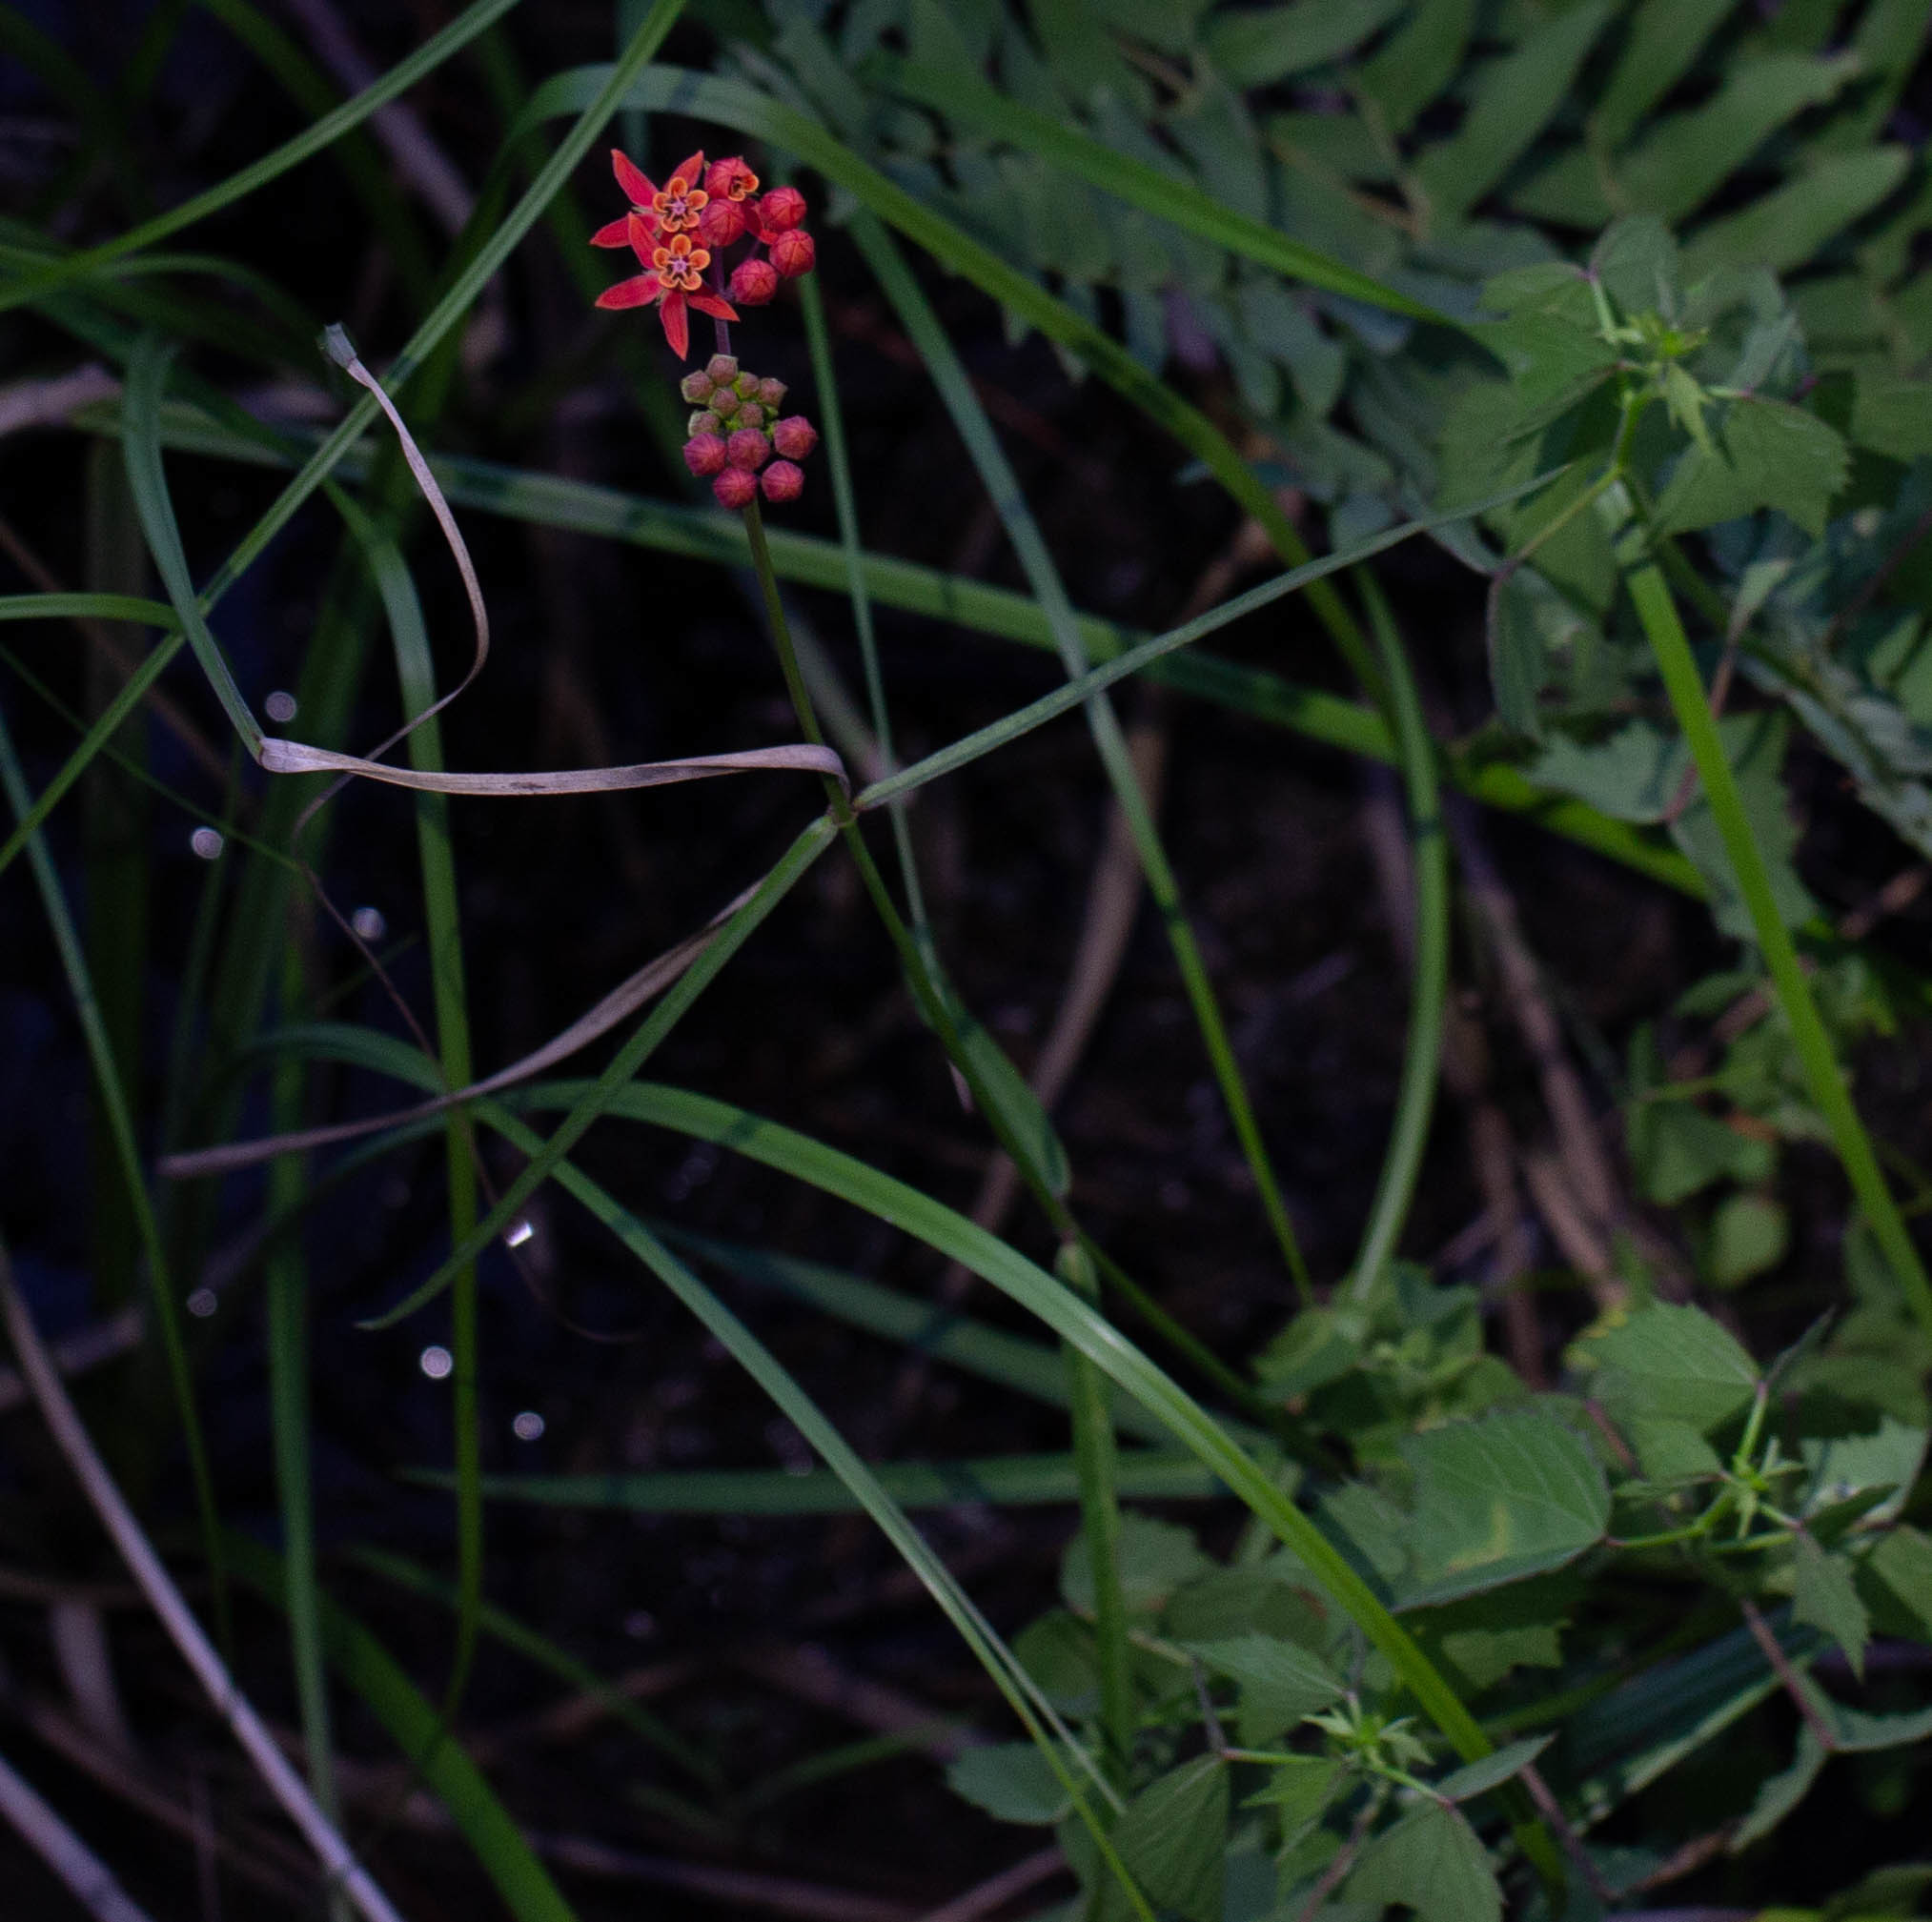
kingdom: Plantae
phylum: Tracheophyta
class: Magnoliopsida
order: Gentianales
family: Apocynaceae
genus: Asclepias
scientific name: Asclepias lanceolata
